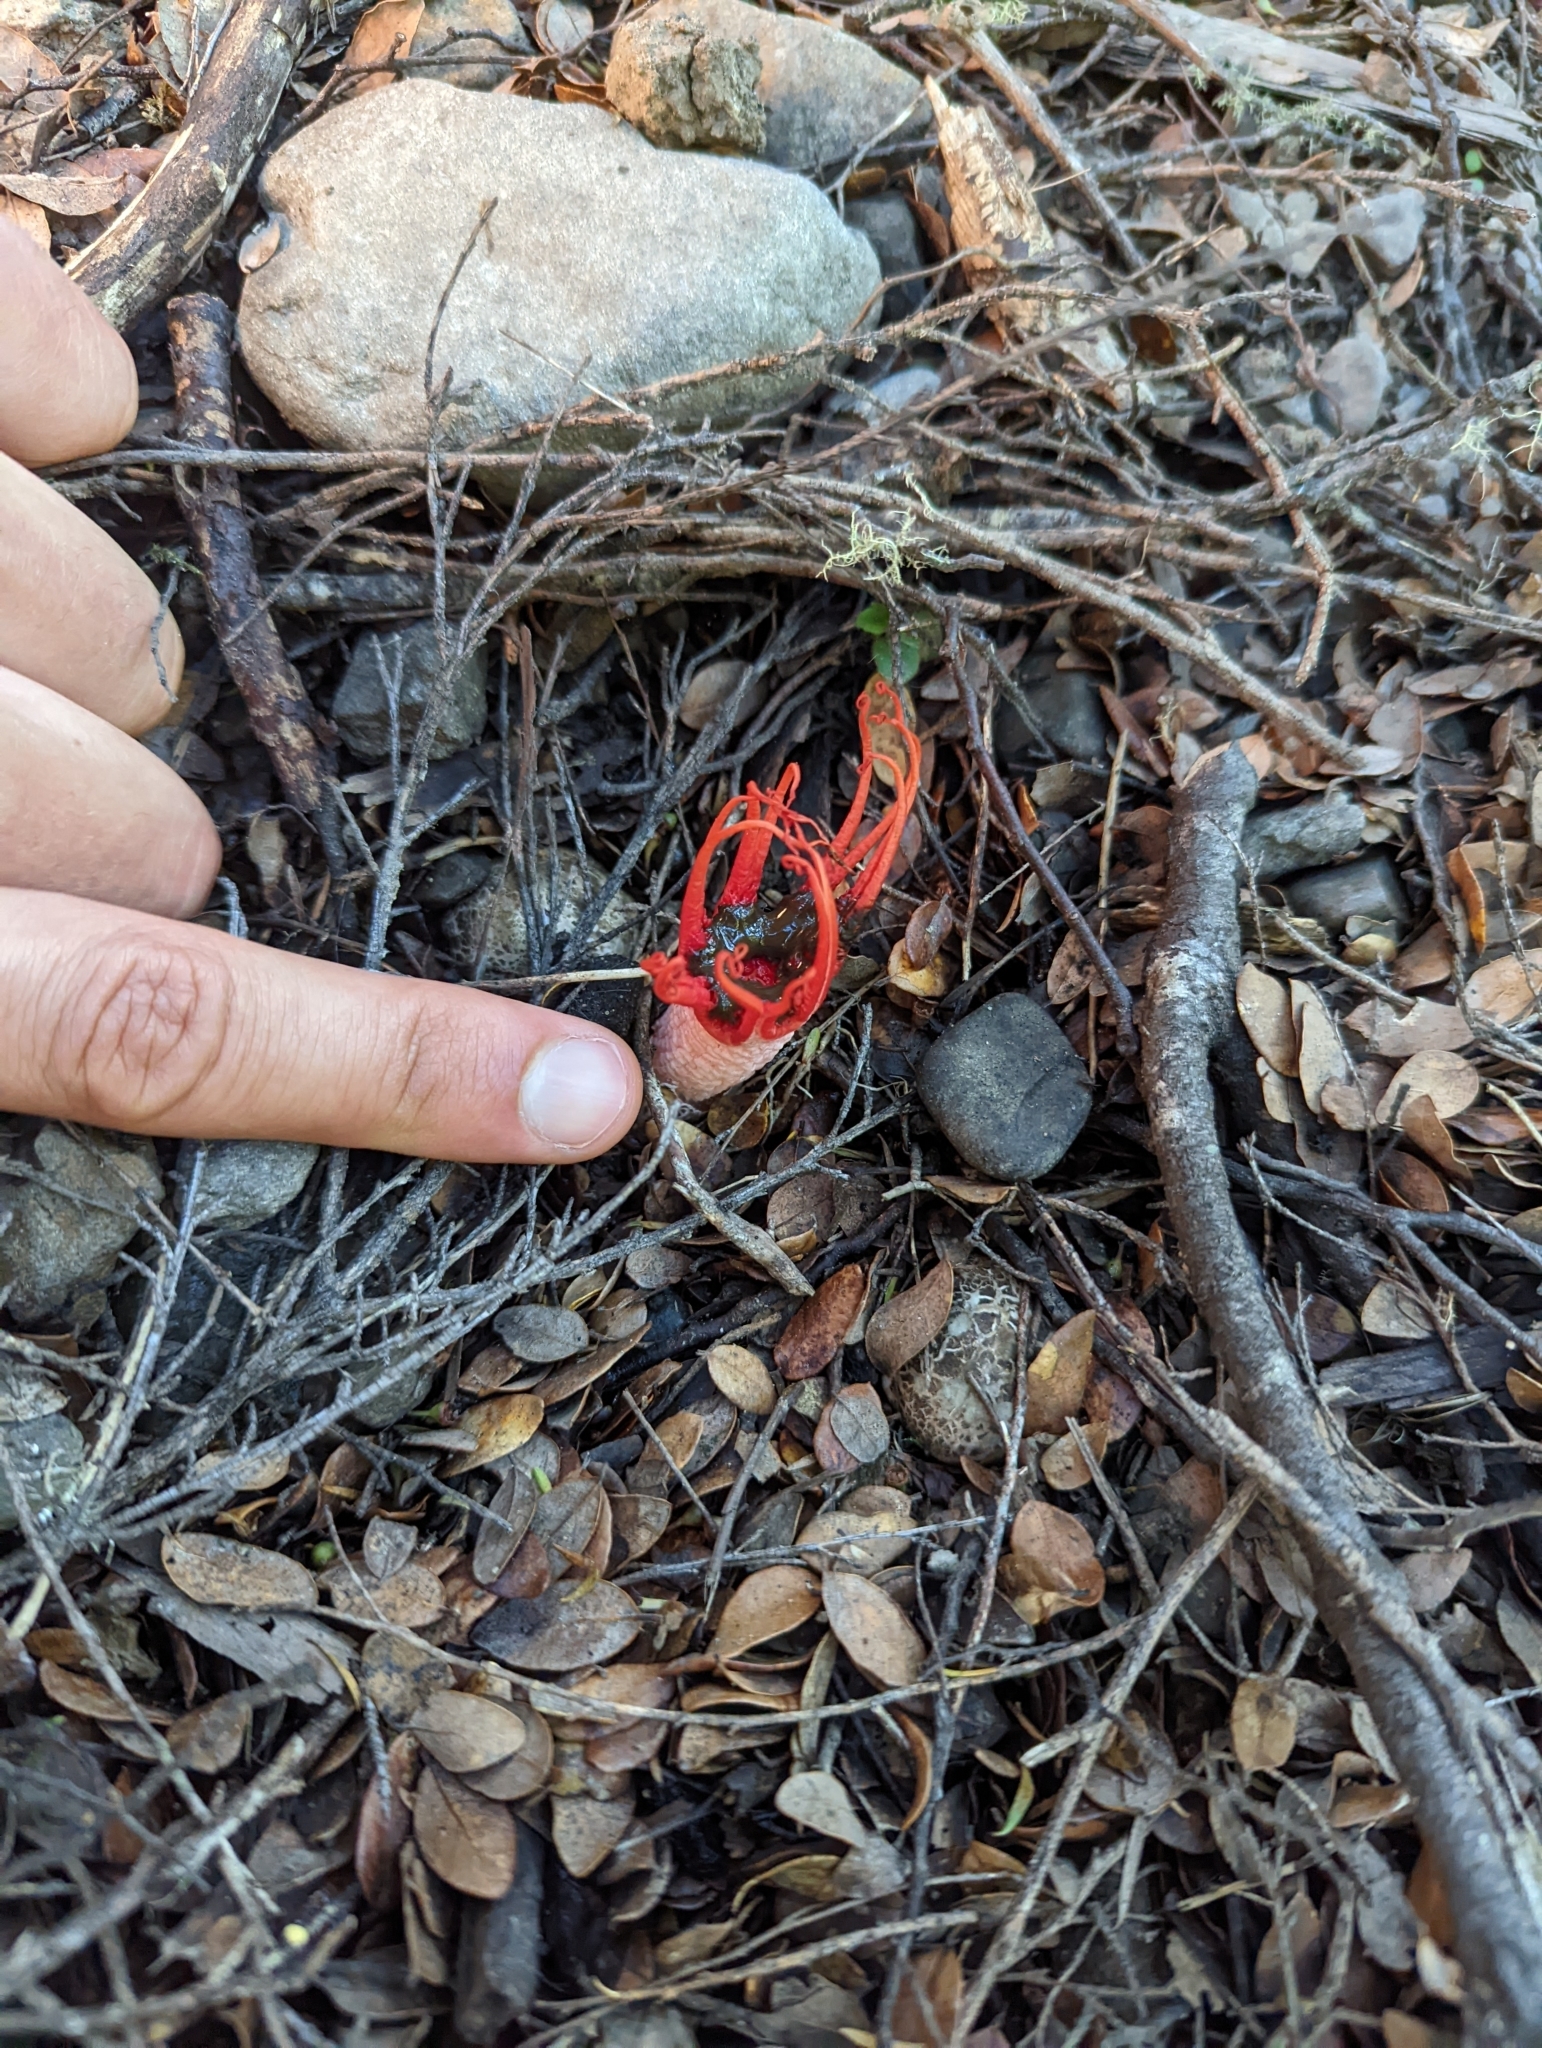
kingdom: Fungi
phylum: Basidiomycota
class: Agaricomycetes
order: Phallales
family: Phallaceae
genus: Aseroe
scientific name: Aseroe rubra
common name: Starfish fungus
